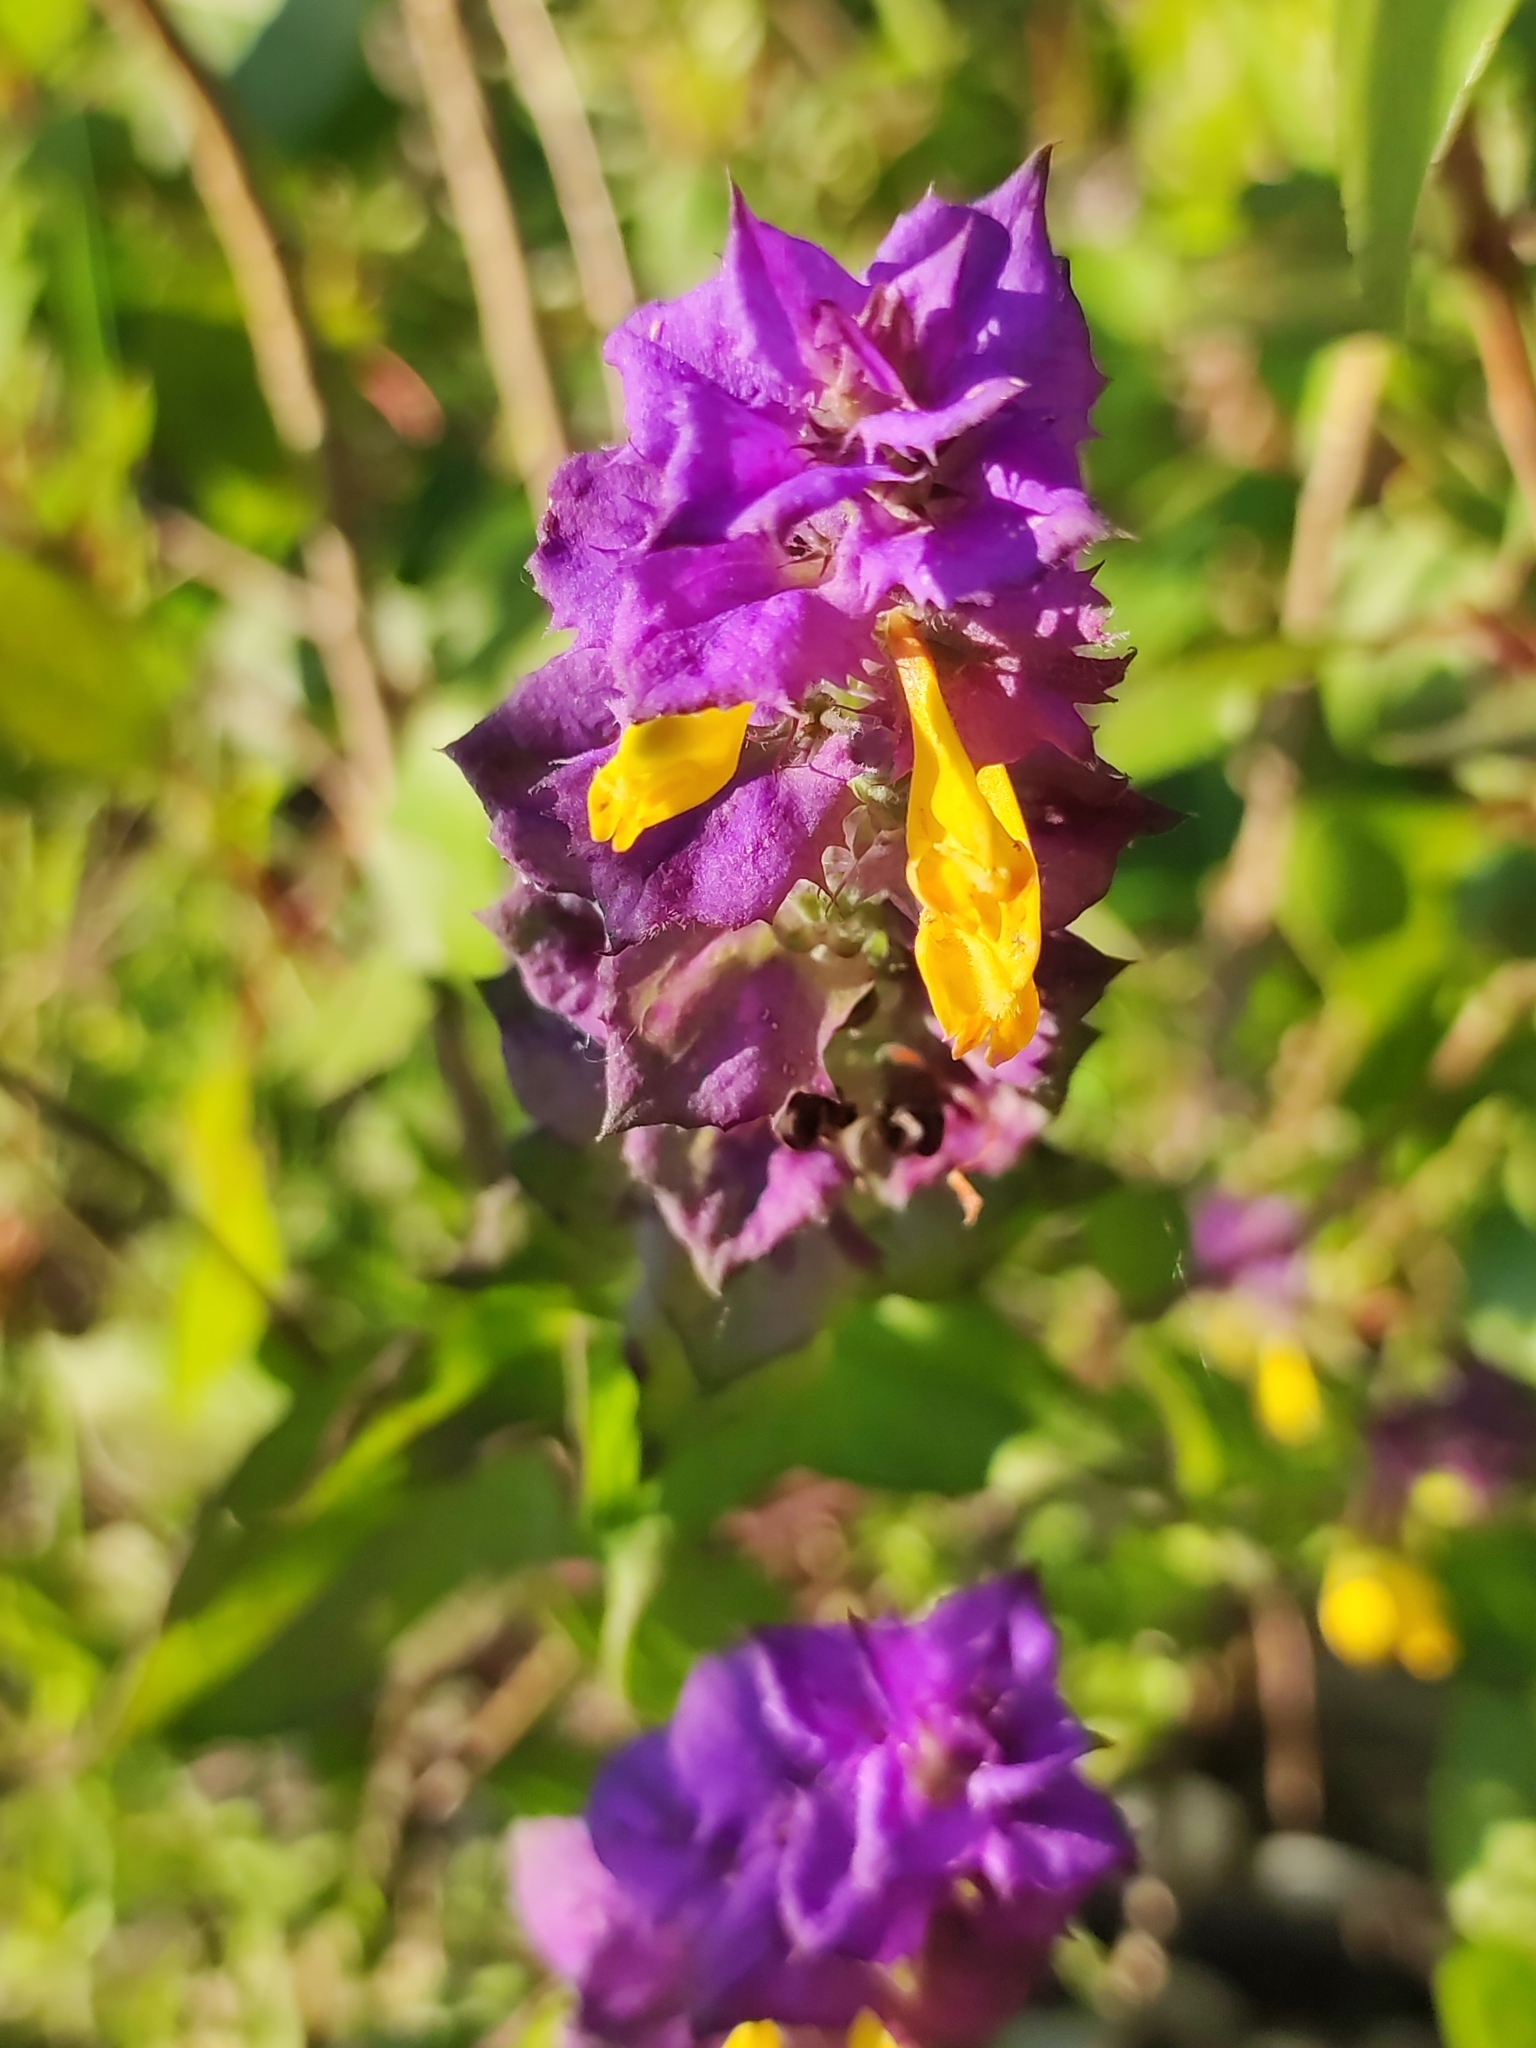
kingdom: Plantae
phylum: Tracheophyta
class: Magnoliopsida
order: Lamiales
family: Orobanchaceae
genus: Melampyrum
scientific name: Melampyrum nemorosum
